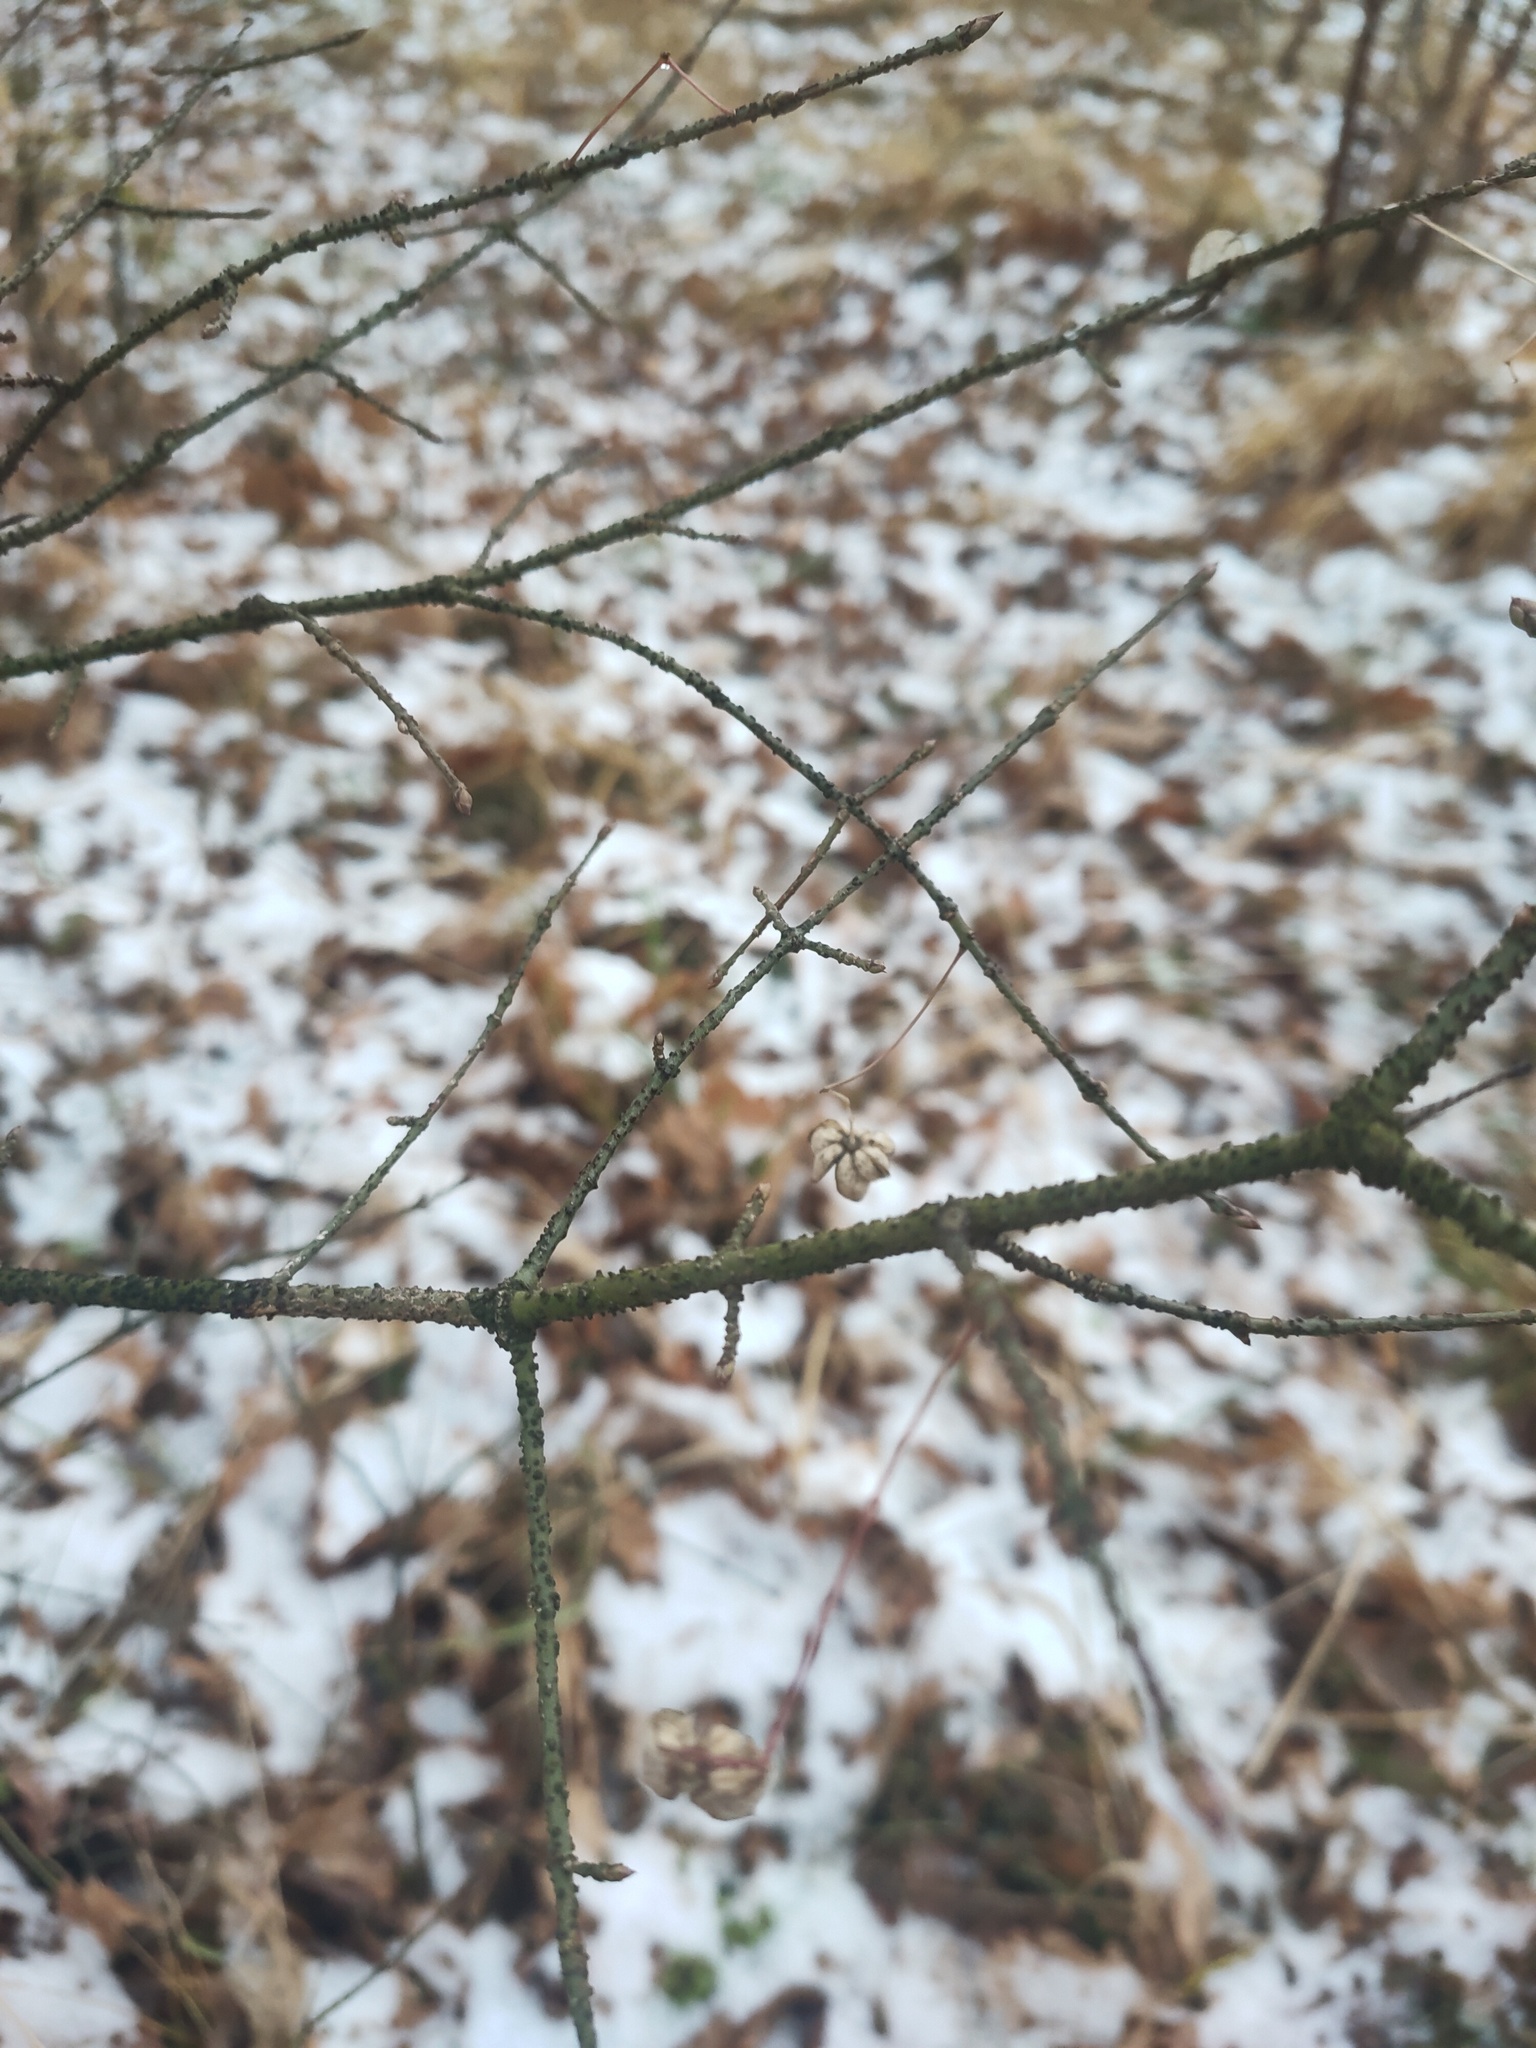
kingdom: Plantae
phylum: Tracheophyta
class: Magnoliopsida
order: Celastrales
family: Celastraceae
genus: Euonymus
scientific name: Euonymus verrucosus
